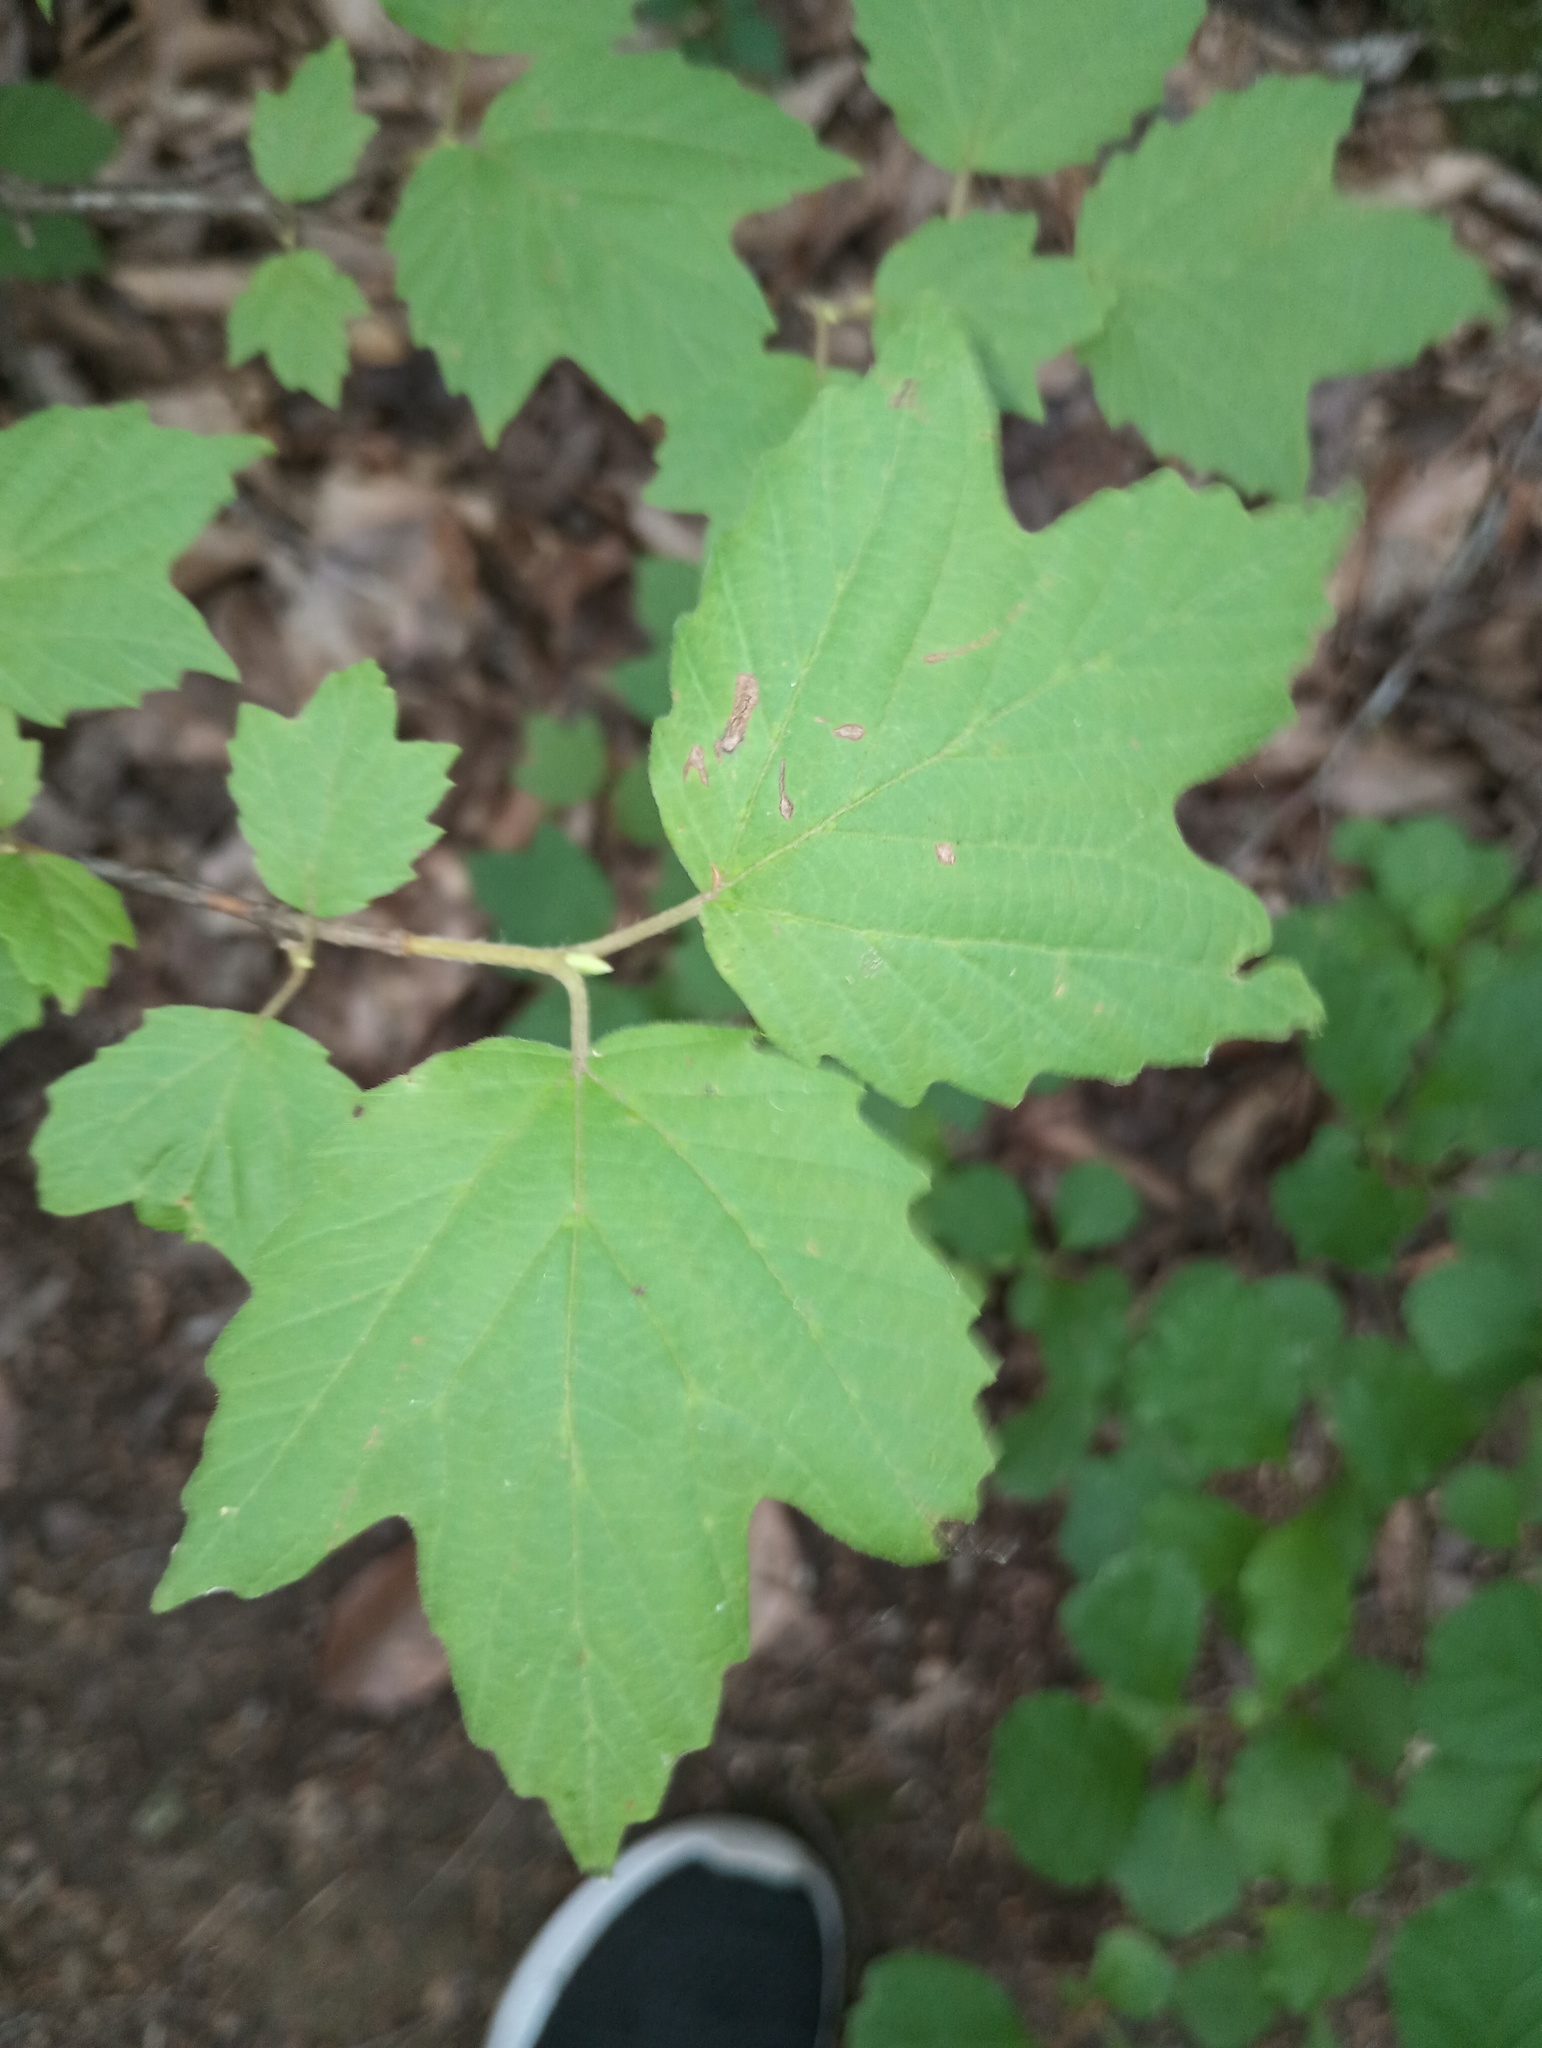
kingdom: Plantae
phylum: Tracheophyta
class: Magnoliopsida
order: Dipsacales
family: Viburnaceae
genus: Viburnum
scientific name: Viburnum acerifolium
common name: Dockmackie
